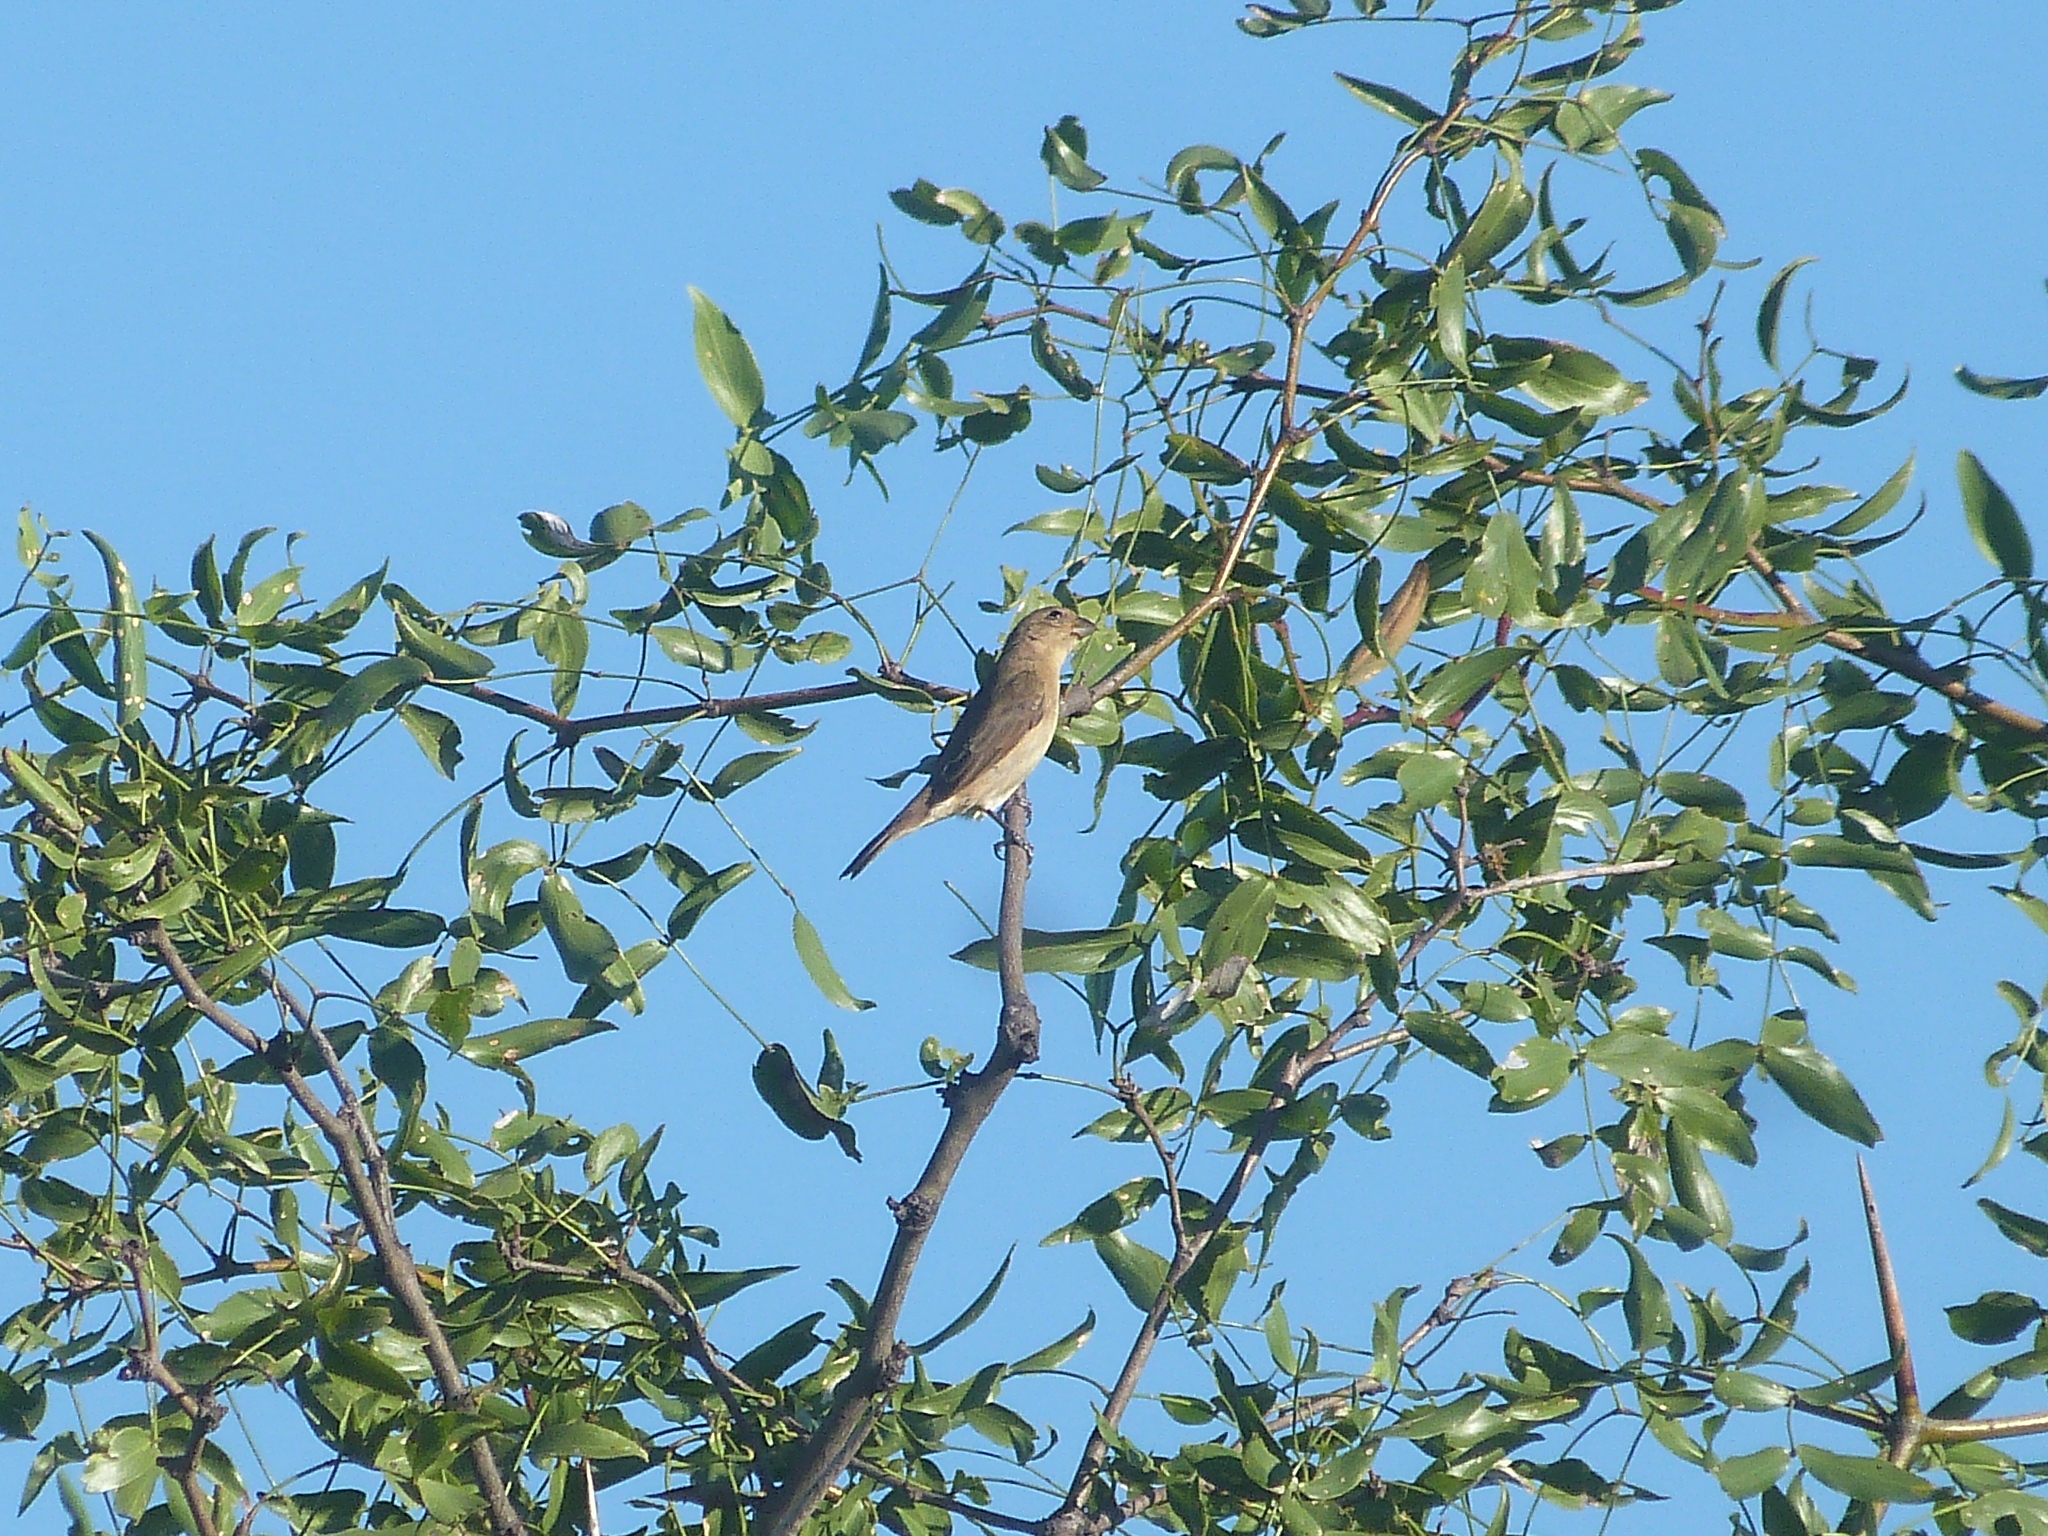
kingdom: Animalia
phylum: Chordata
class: Aves
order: Passeriformes
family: Thraupidae
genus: Sporophila
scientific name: Sporophila caerulescens
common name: Double-collared seedeater
